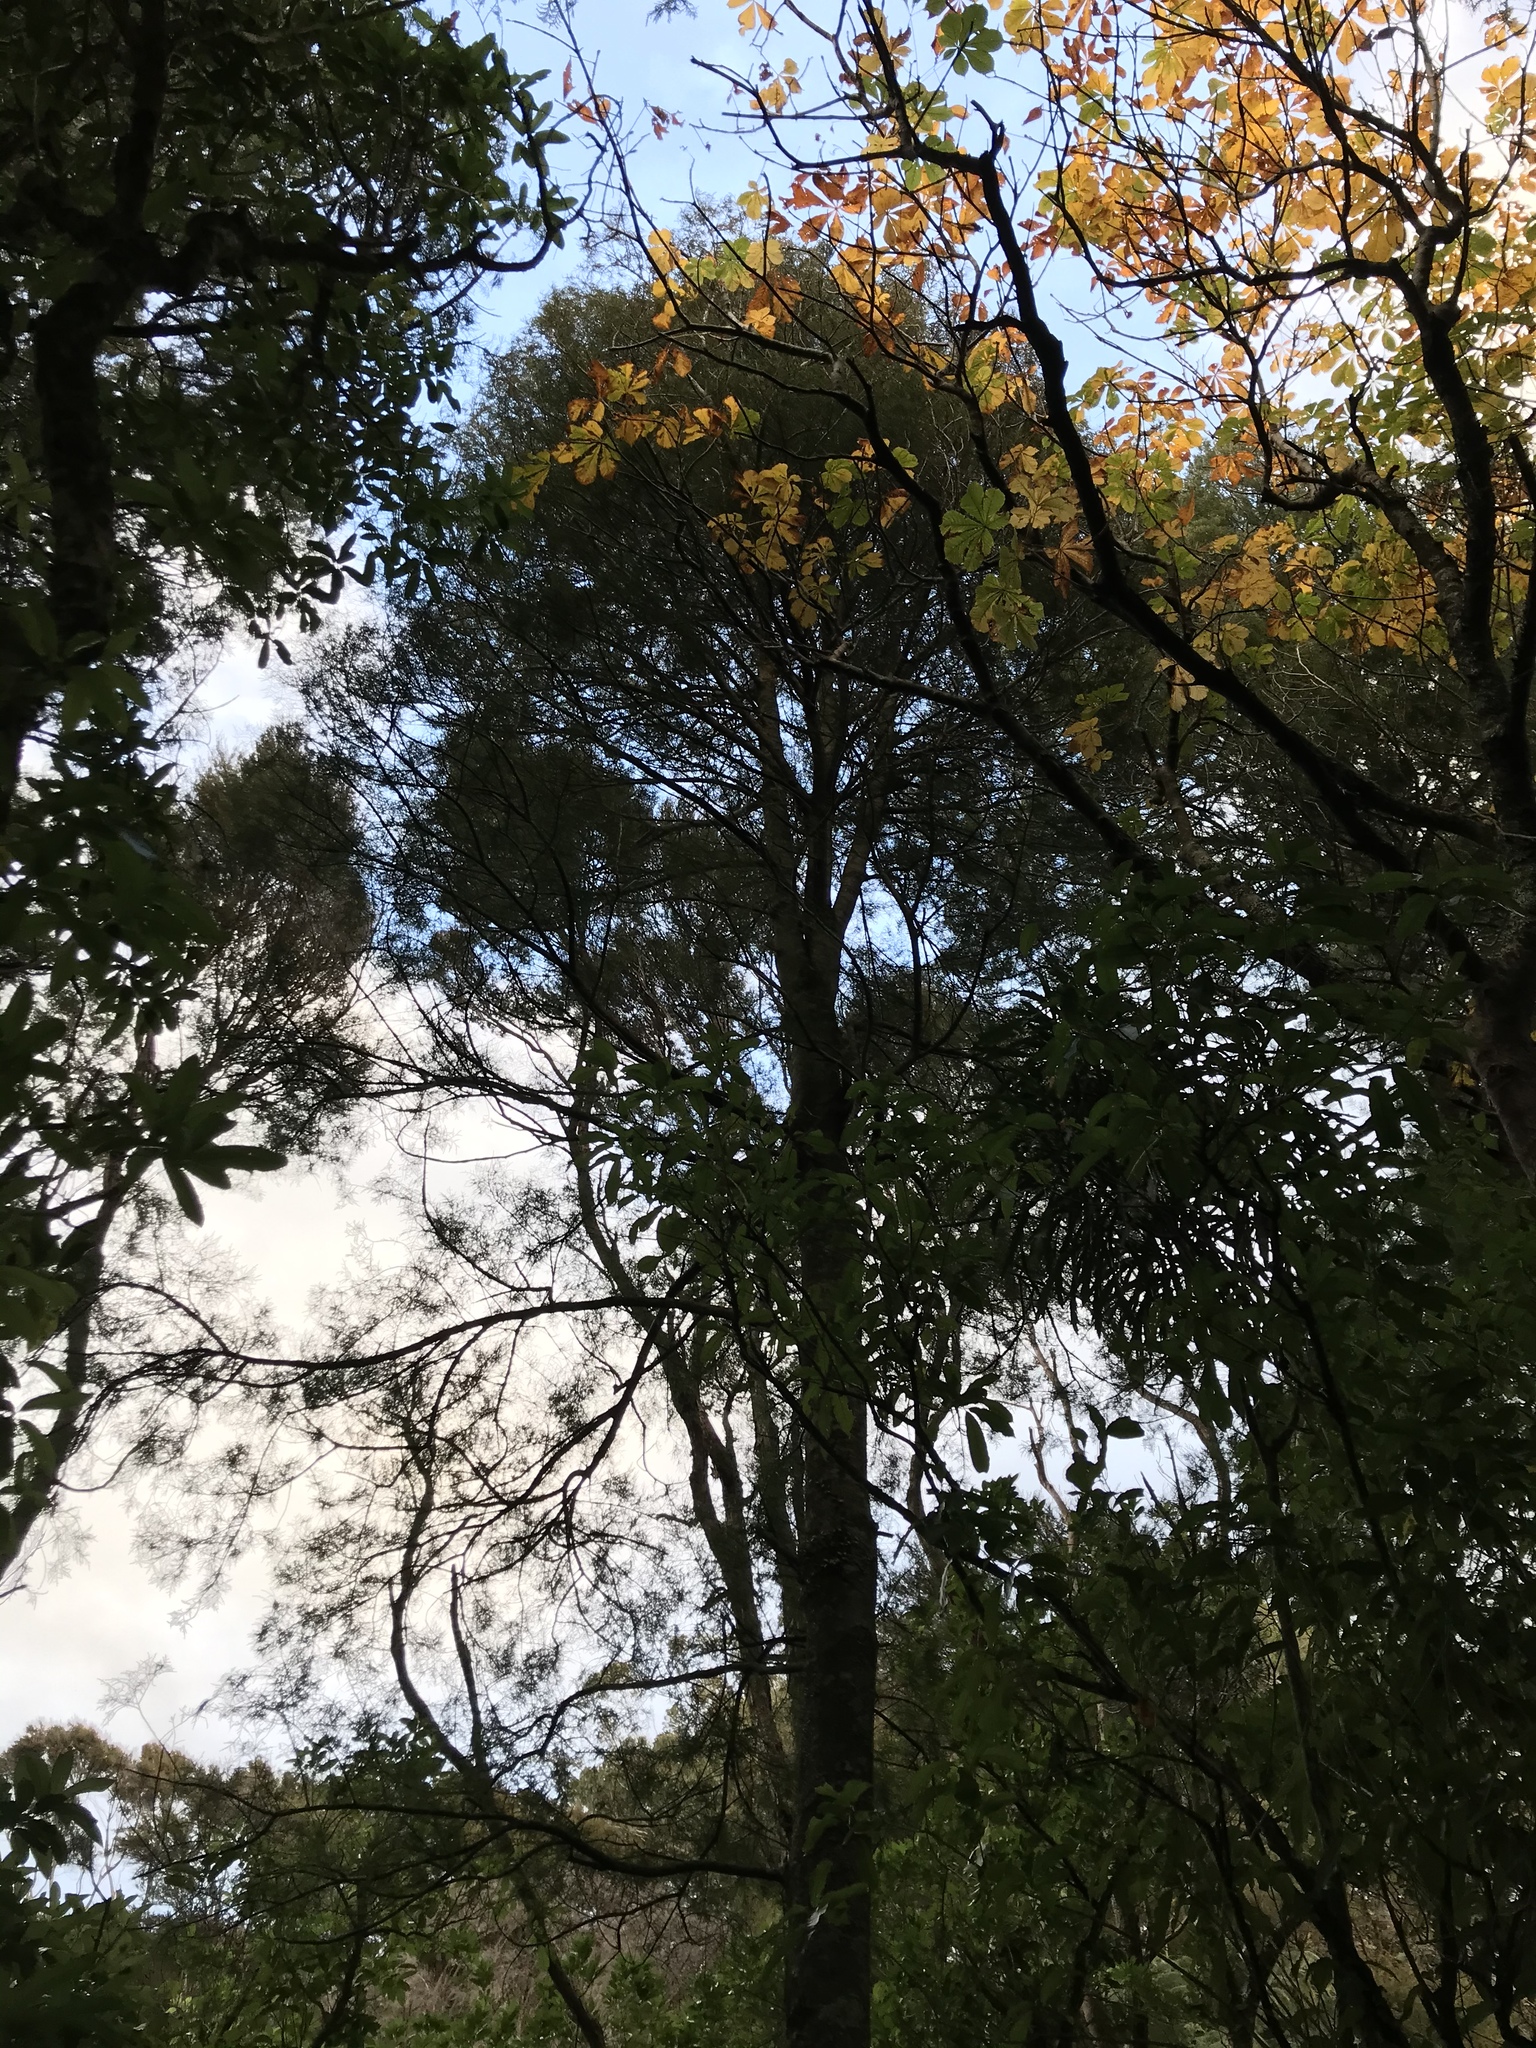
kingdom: Plantae
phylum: Tracheophyta
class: Pinopsida
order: Pinales
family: Podocarpaceae
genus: Dacrycarpus
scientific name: Dacrycarpus dacrydioides
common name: White pine
